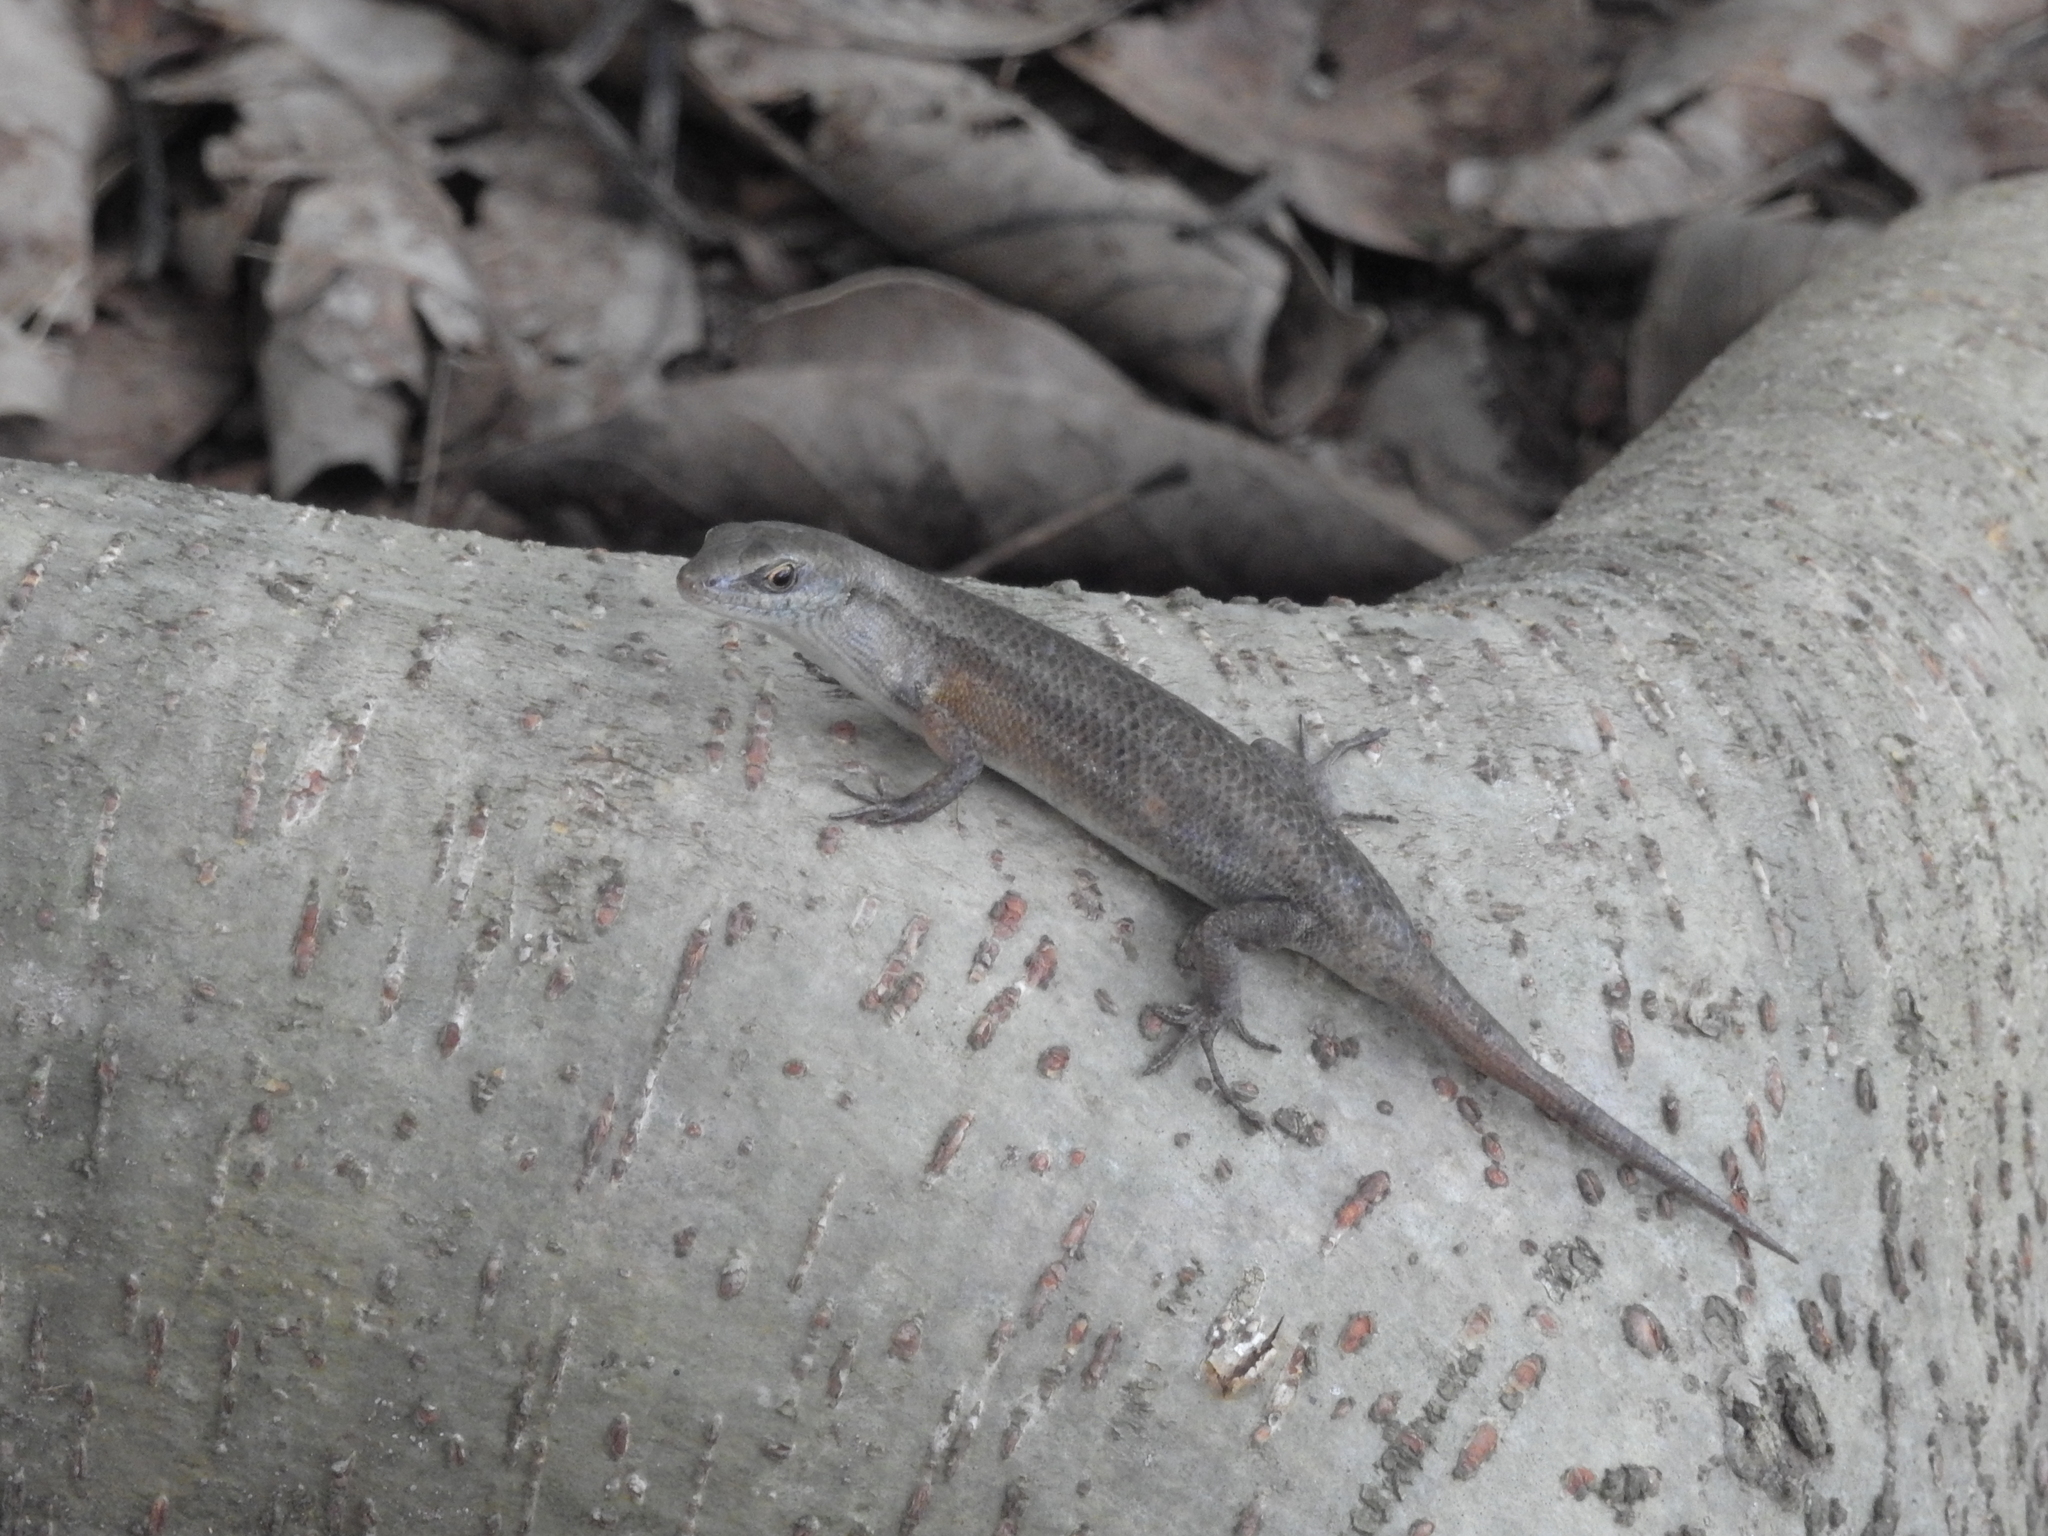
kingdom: Animalia
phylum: Chordata
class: Squamata
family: Scincidae
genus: Carlia
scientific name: Carlia sexdentata
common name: Closed-litter rainbow-skink
